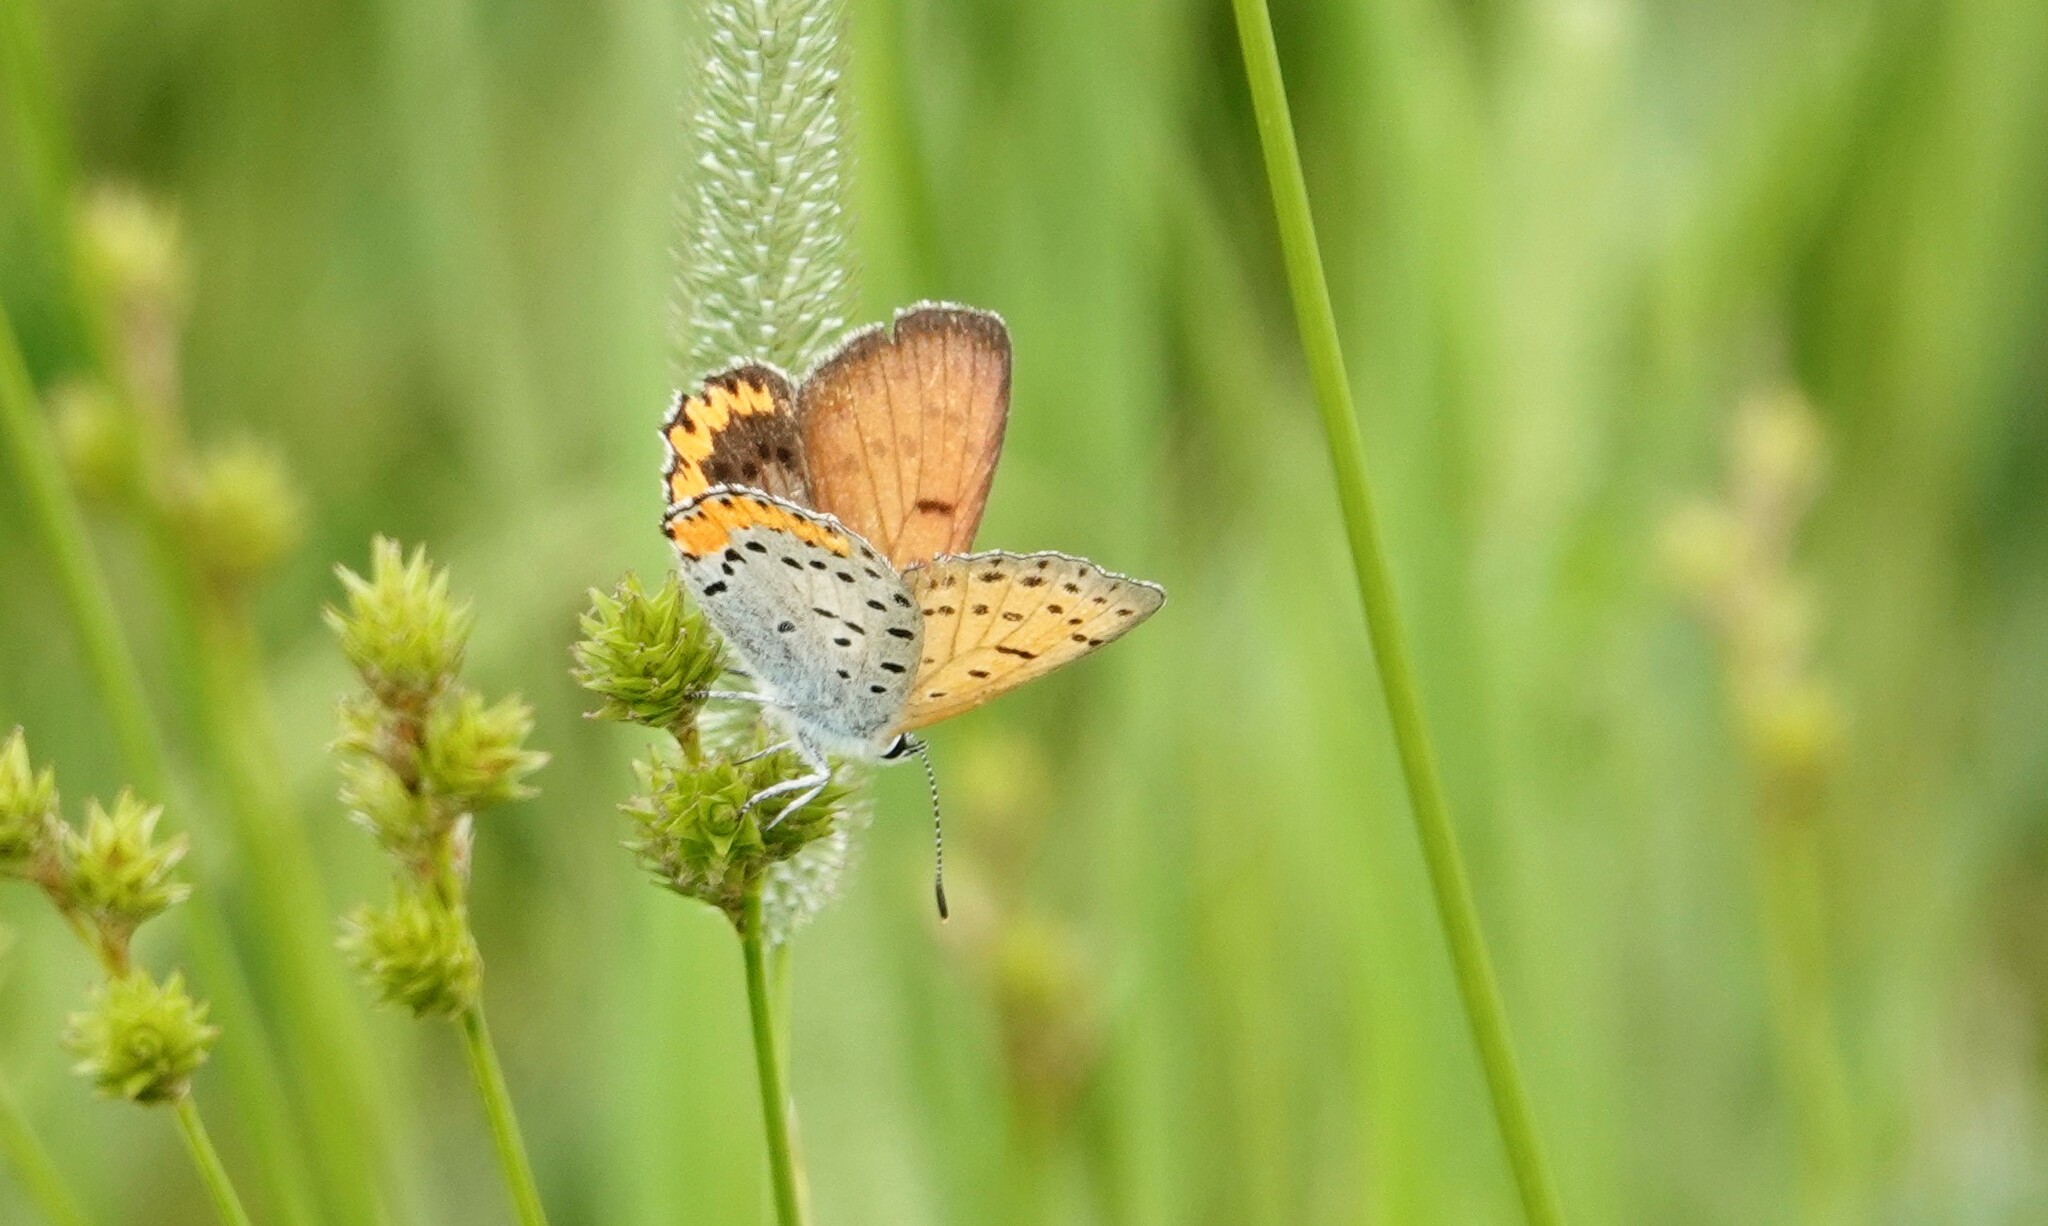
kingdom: Animalia
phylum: Arthropoda
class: Insecta
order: Lepidoptera
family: Lycaenidae
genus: Tharsalea
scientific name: Tharsalea hyllus
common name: Bronze copper
